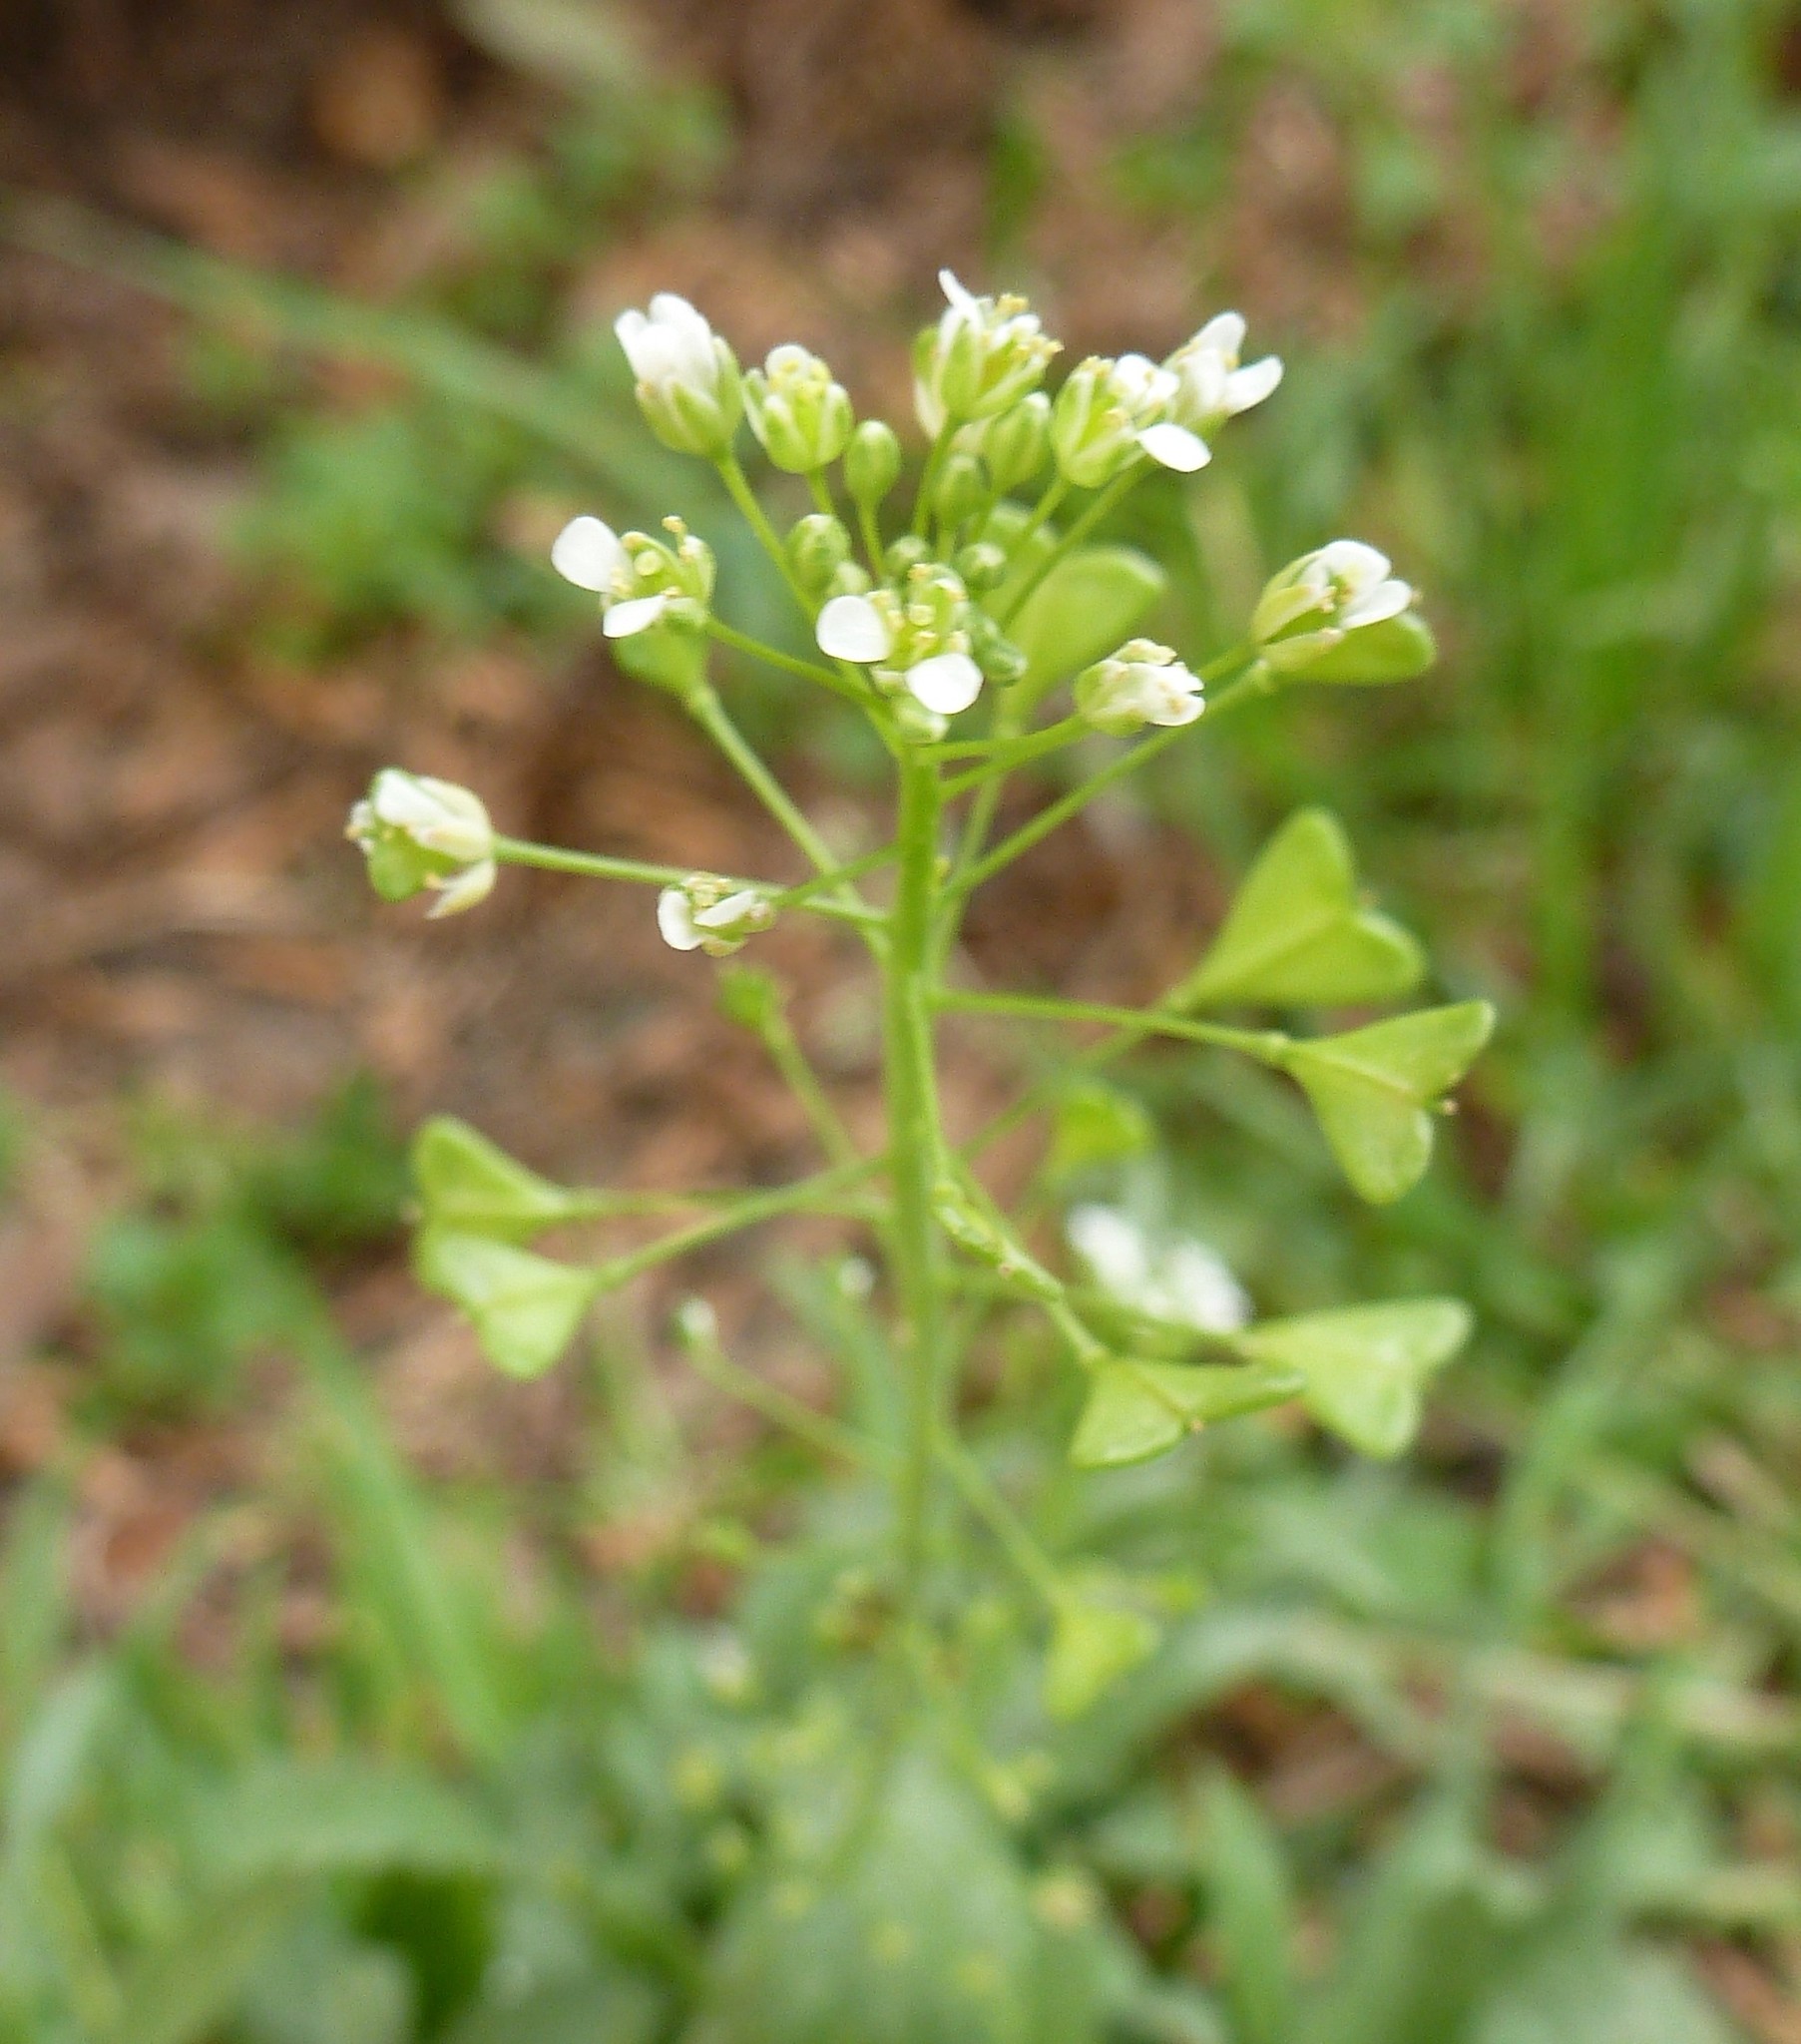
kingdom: Plantae
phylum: Tracheophyta
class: Magnoliopsida
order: Brassicales
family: Brassicaceae
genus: Capsella
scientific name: Capsella bursa-pastoris
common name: Shepherd's purse
